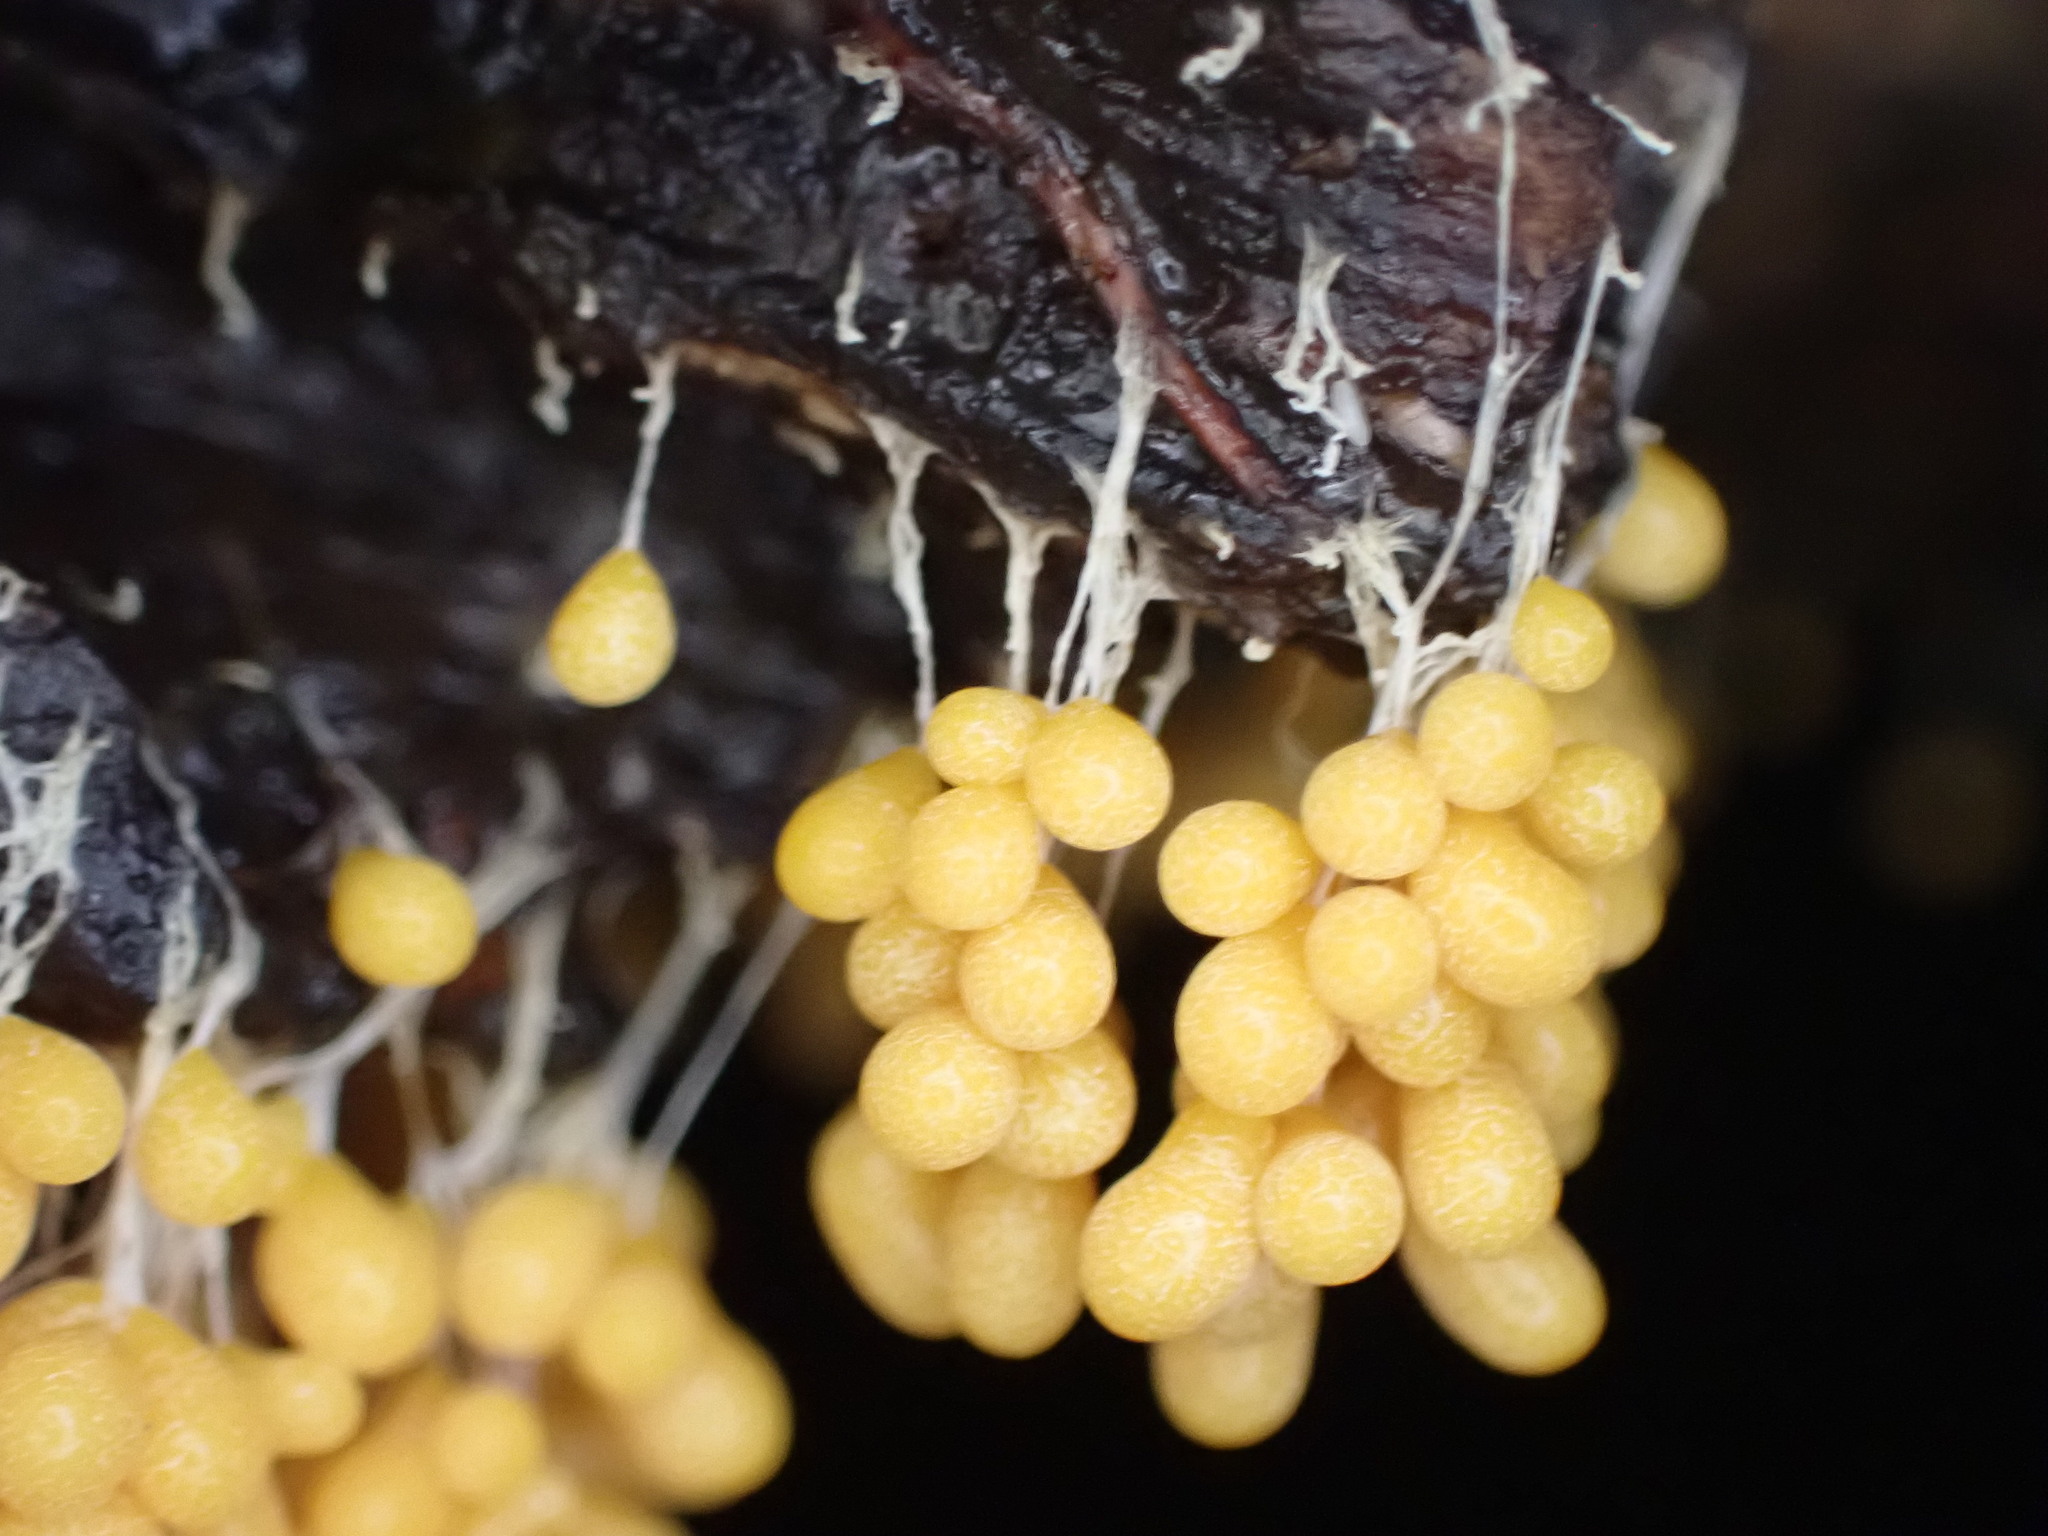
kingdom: Protozoa
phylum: Mycetozoa
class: Myxomycetes
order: Physarales
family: Physaraceae
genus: Badhamia
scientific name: Badhamia utricularis
